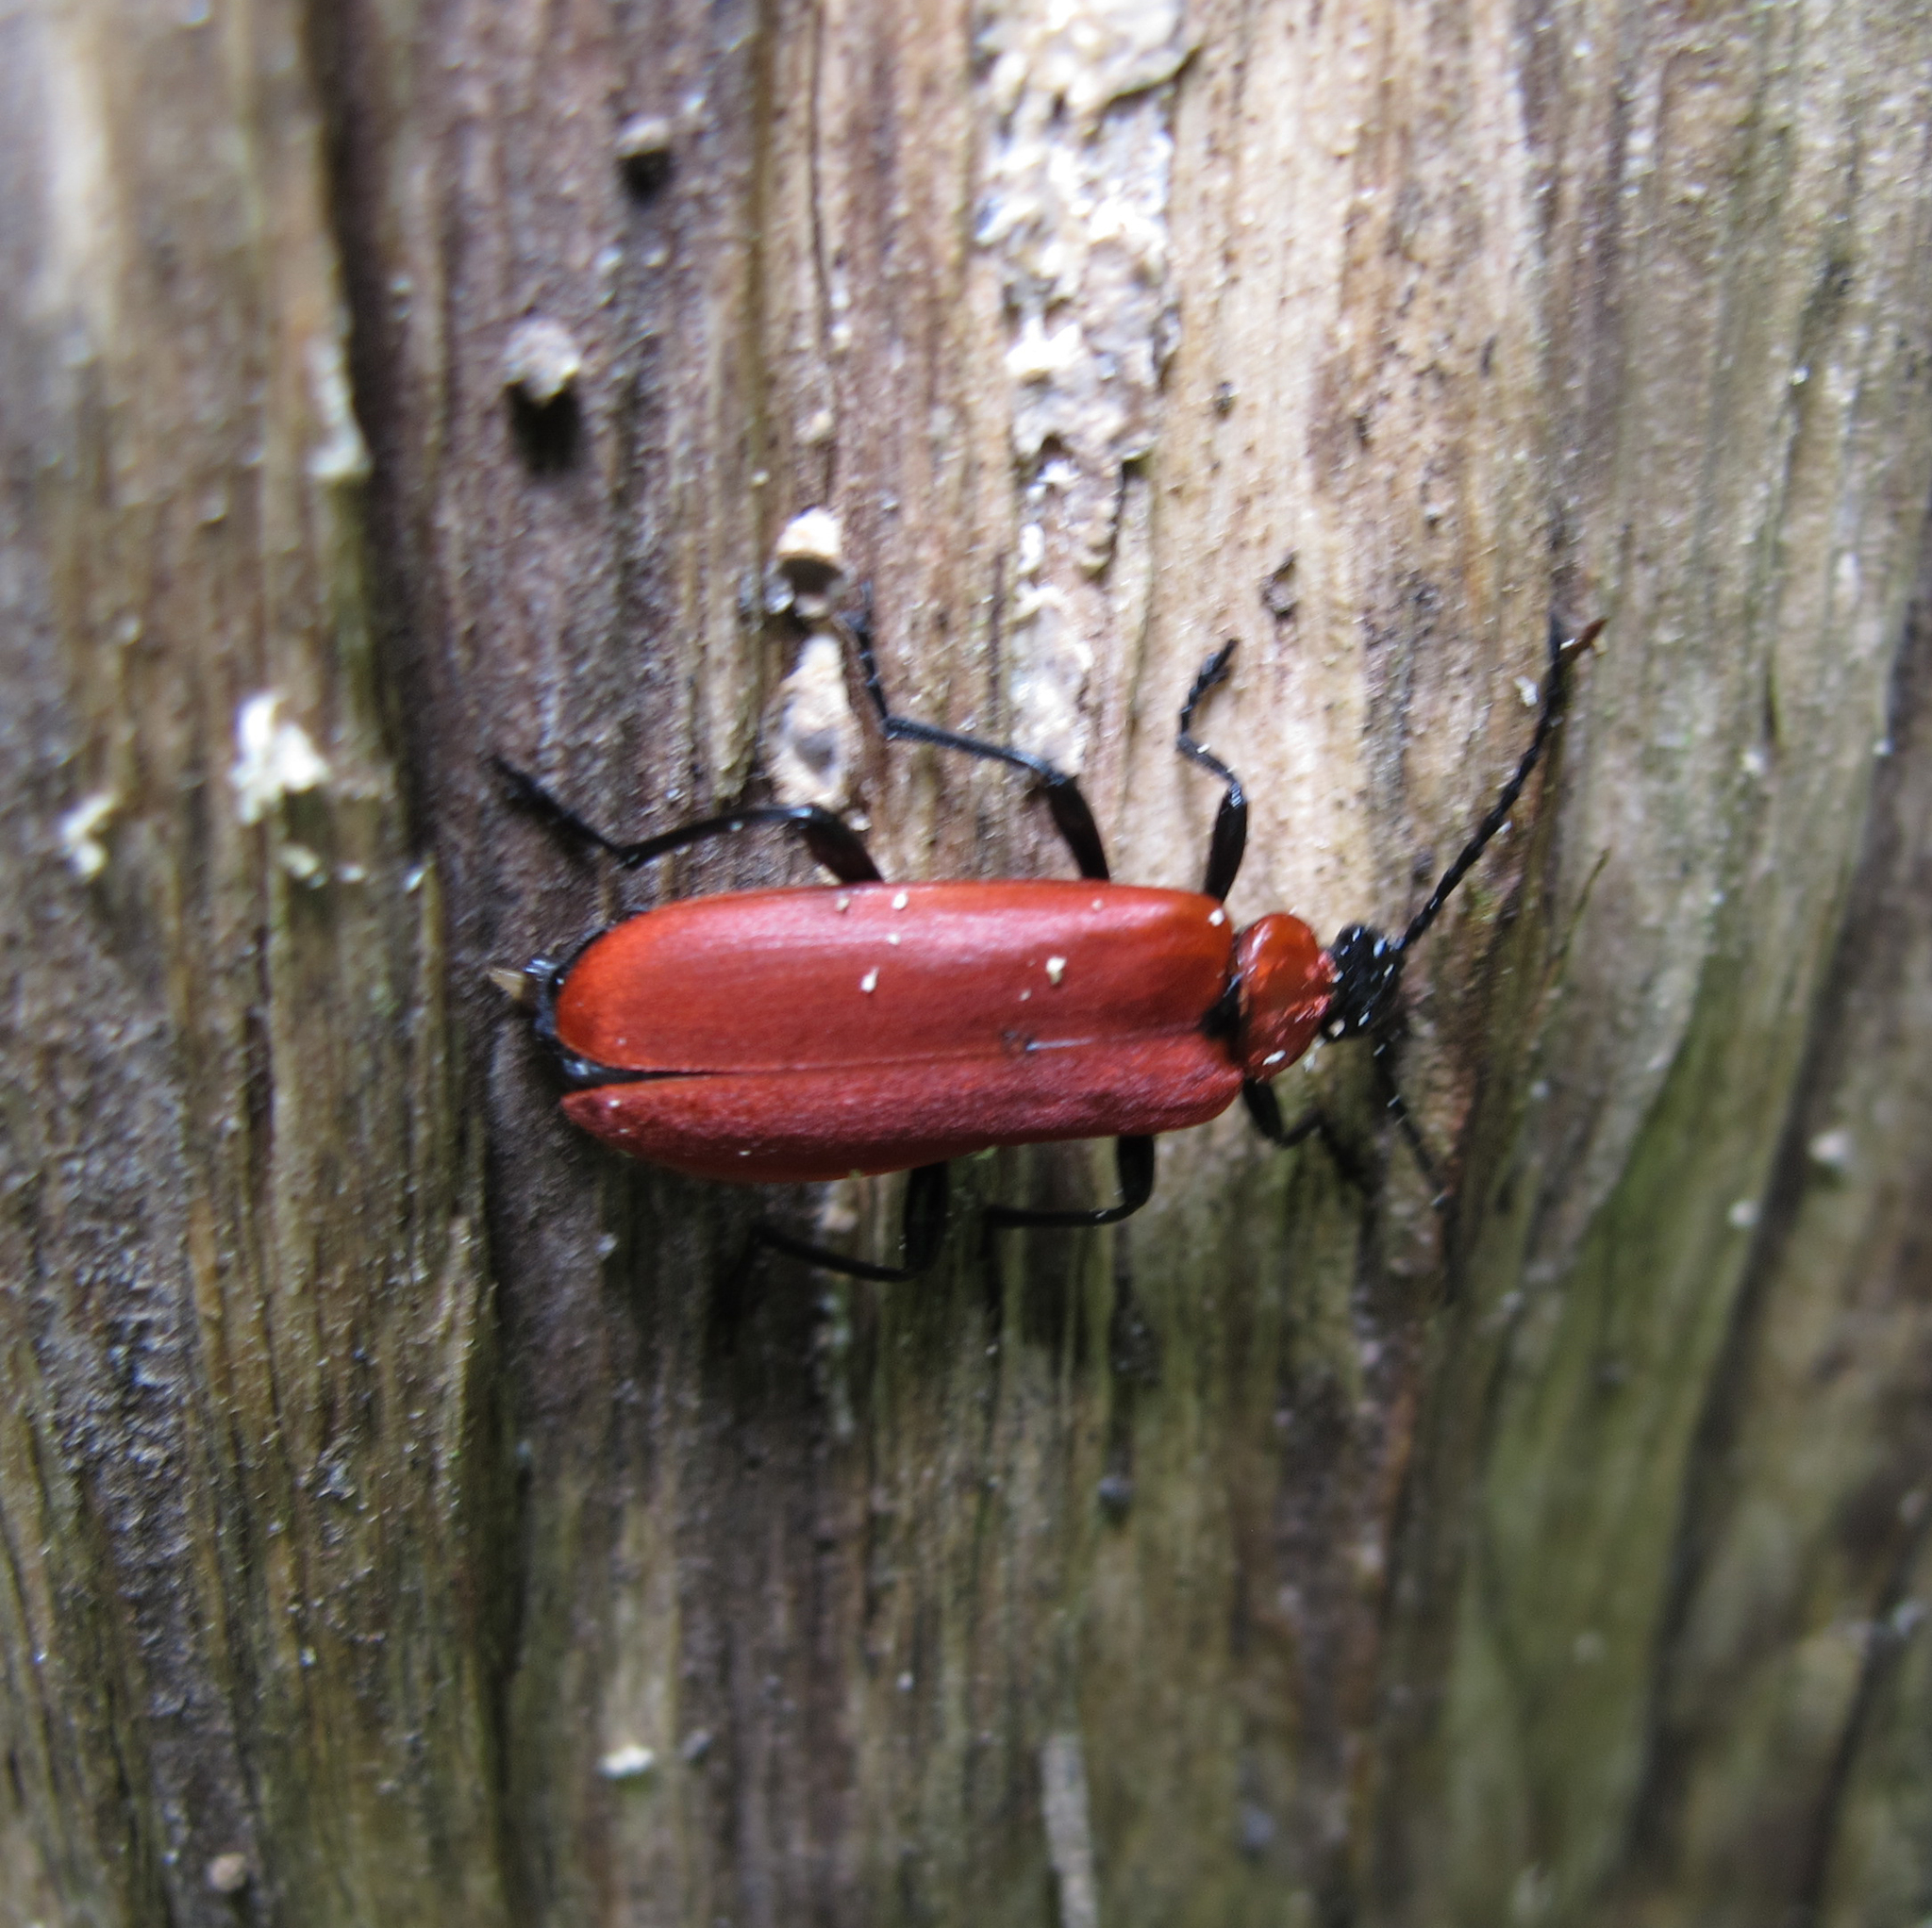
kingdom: Animalia
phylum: Arthropoda
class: Insecta
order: Coleoptera
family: Pyrochroidae
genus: Pyrochroa
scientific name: Pyrochroa coccinea
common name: Black-headed cardinal beetle
